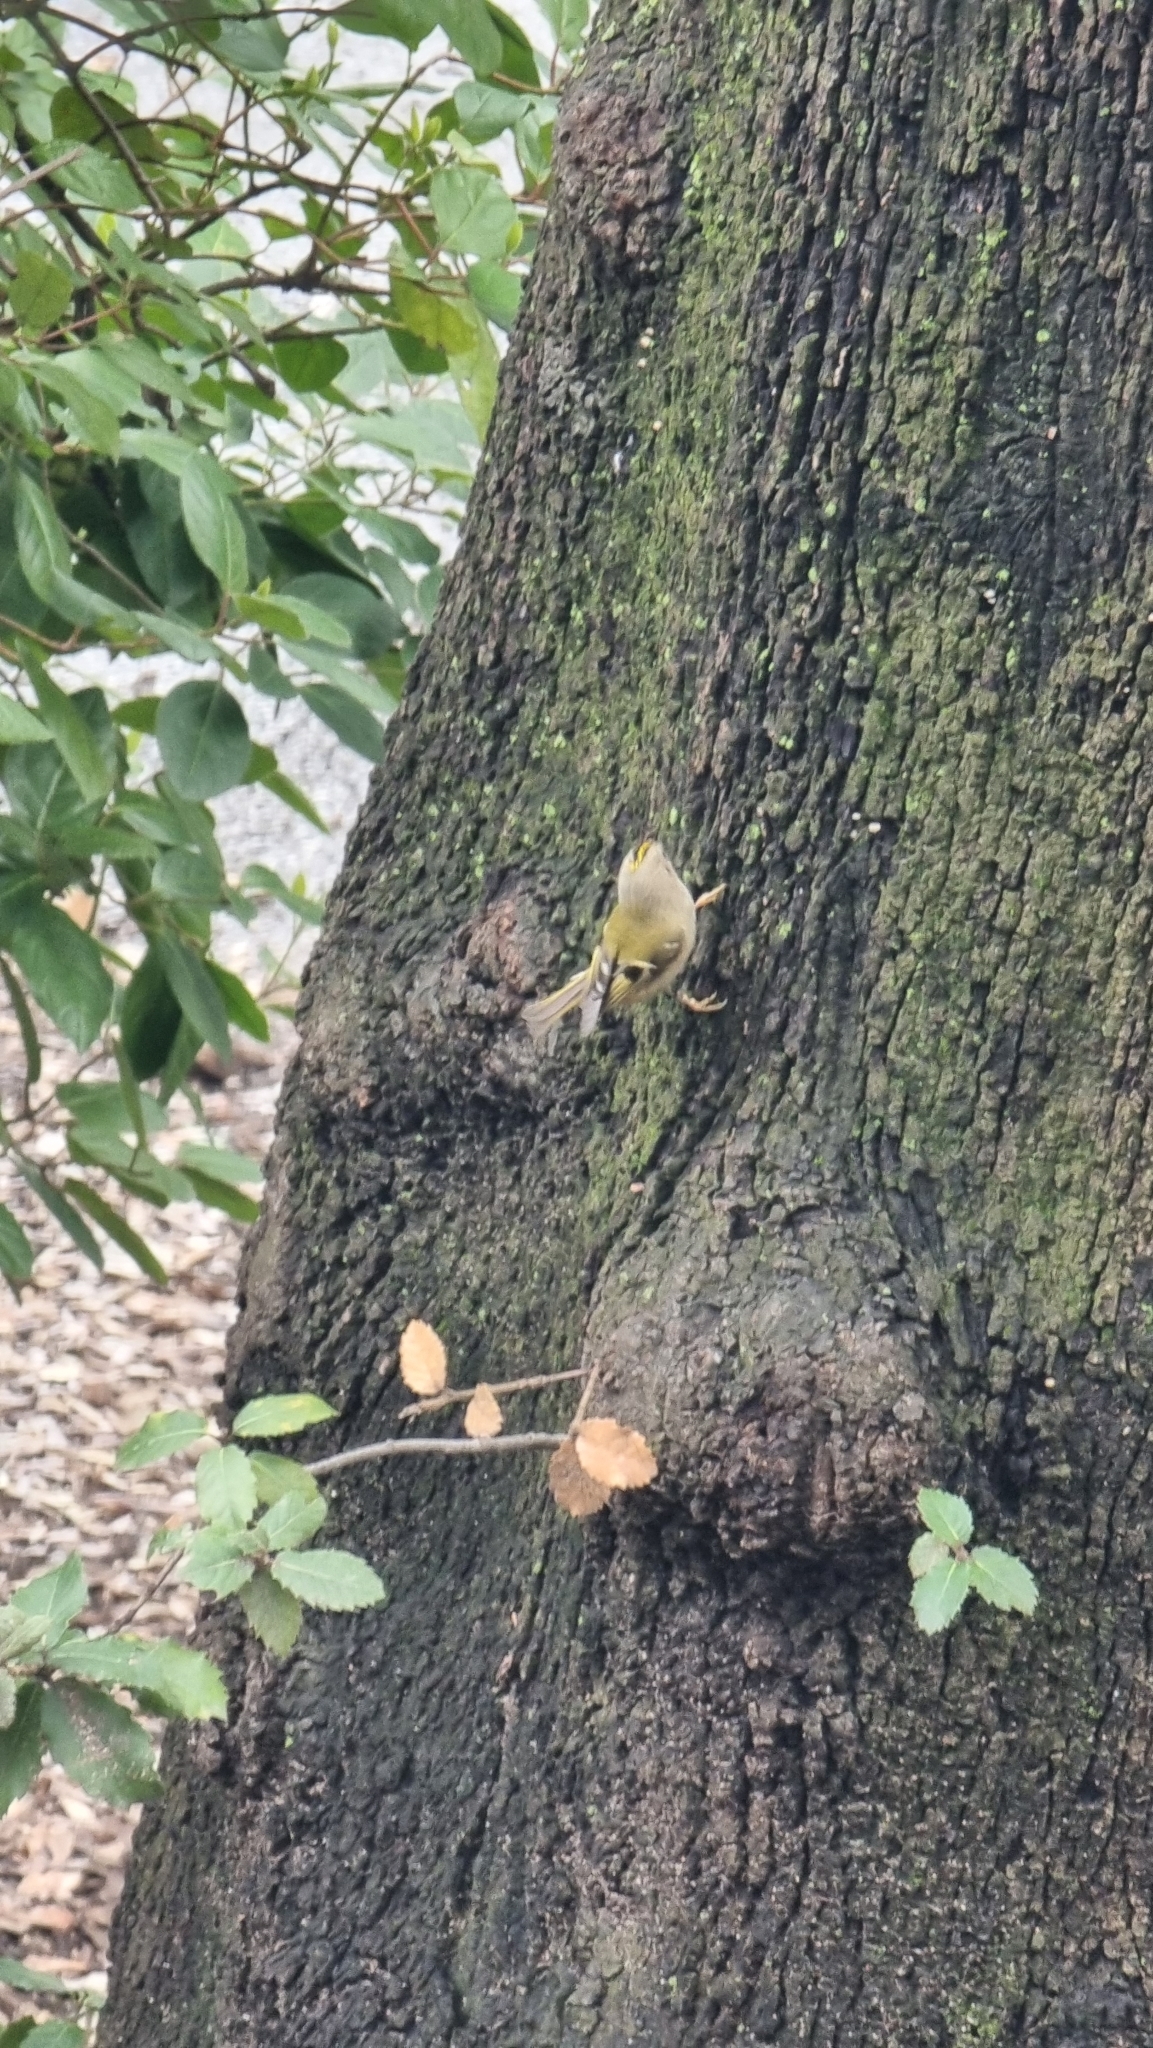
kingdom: Animalia
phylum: Chordata
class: Aves
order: Passeriformes
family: Regulidae
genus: Regulus
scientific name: Regulus regulus
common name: Goldcrest
